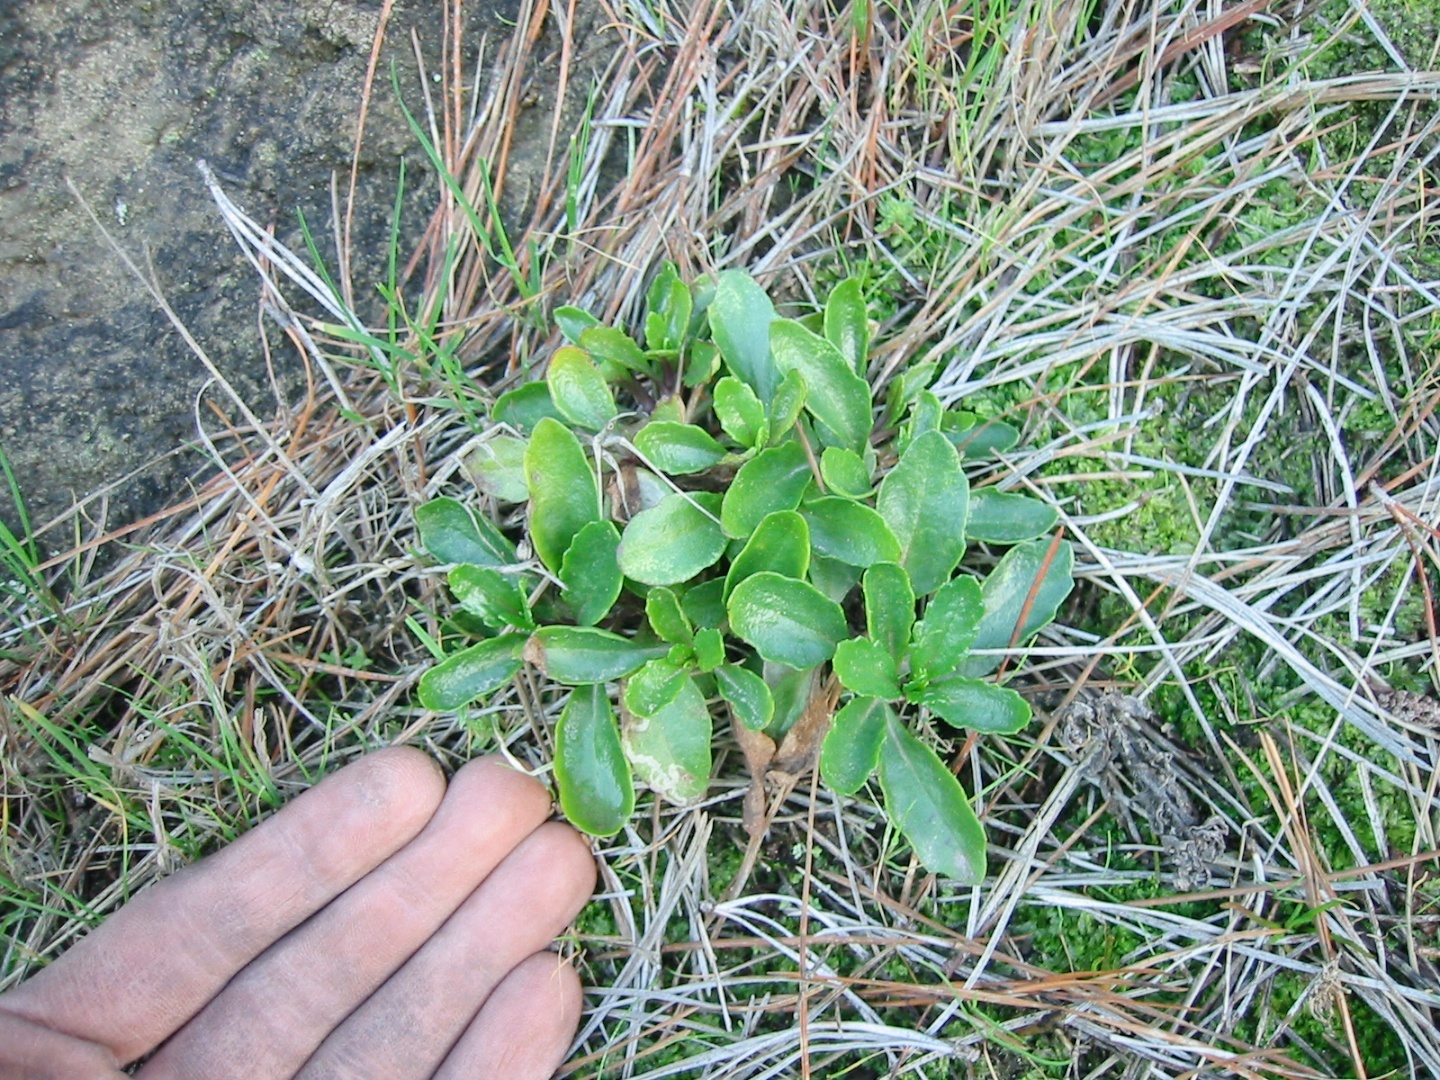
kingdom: Plantae
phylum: Tracheophyta
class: Magnoliopsida
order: Asterales
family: Asteraceae
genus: Senecio
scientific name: Senecio carnosulus
